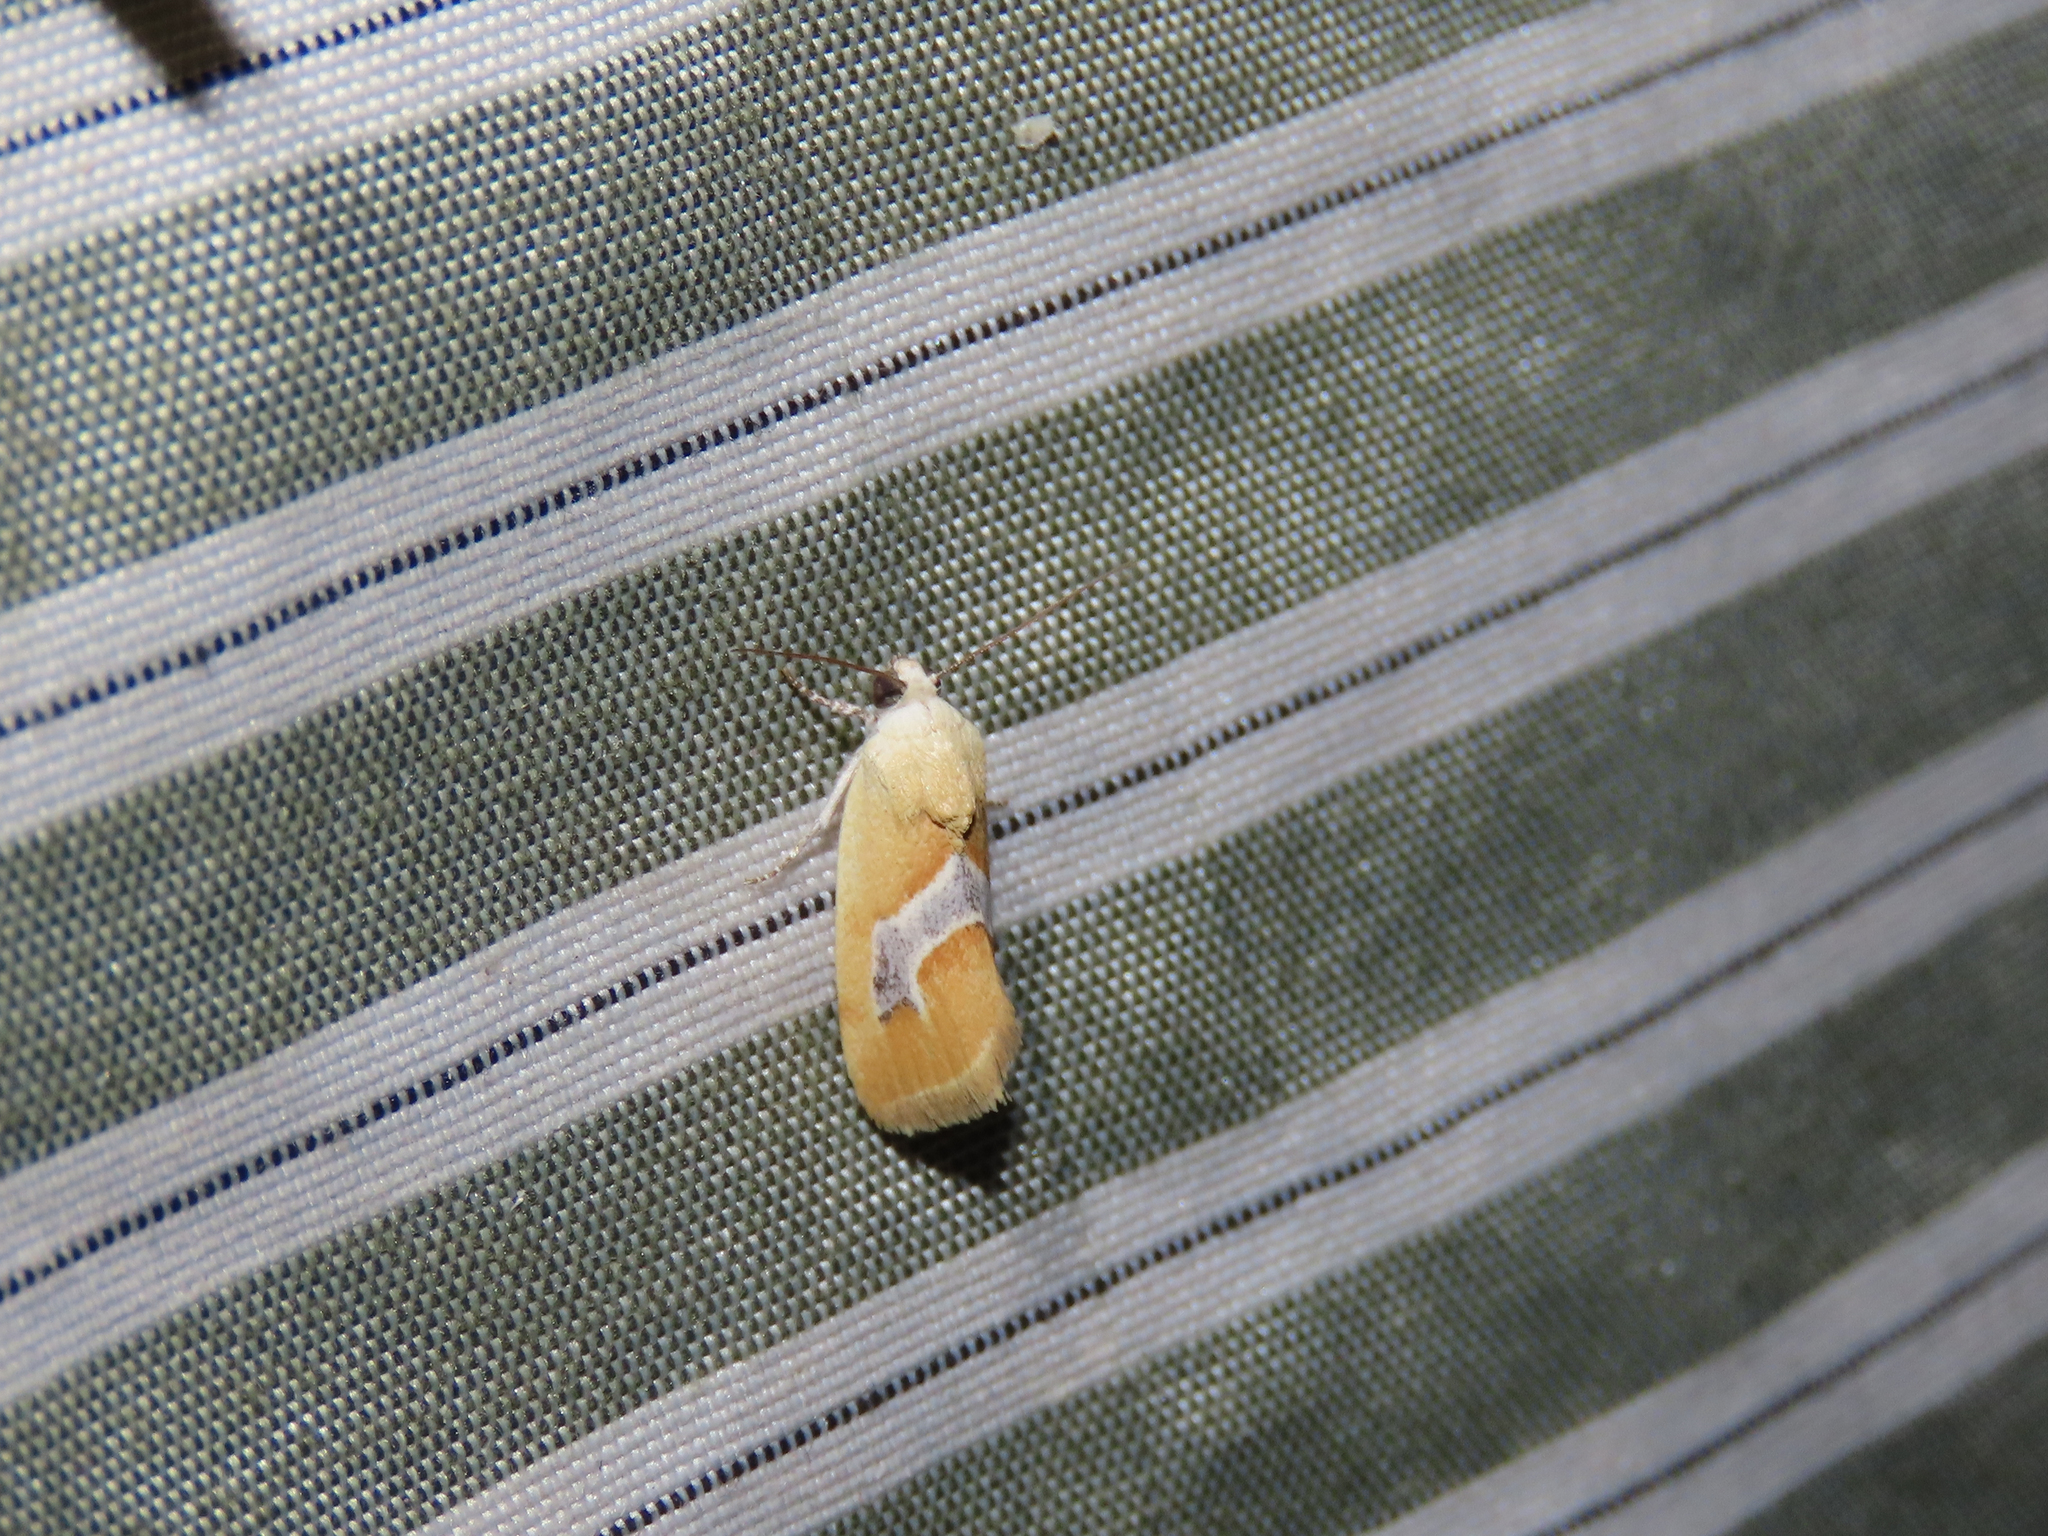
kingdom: Animalia
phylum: Arthropoda
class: Insecta
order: Lepidoptera
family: Noctuidae
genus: Ponometia
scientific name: Ponometia venustula
